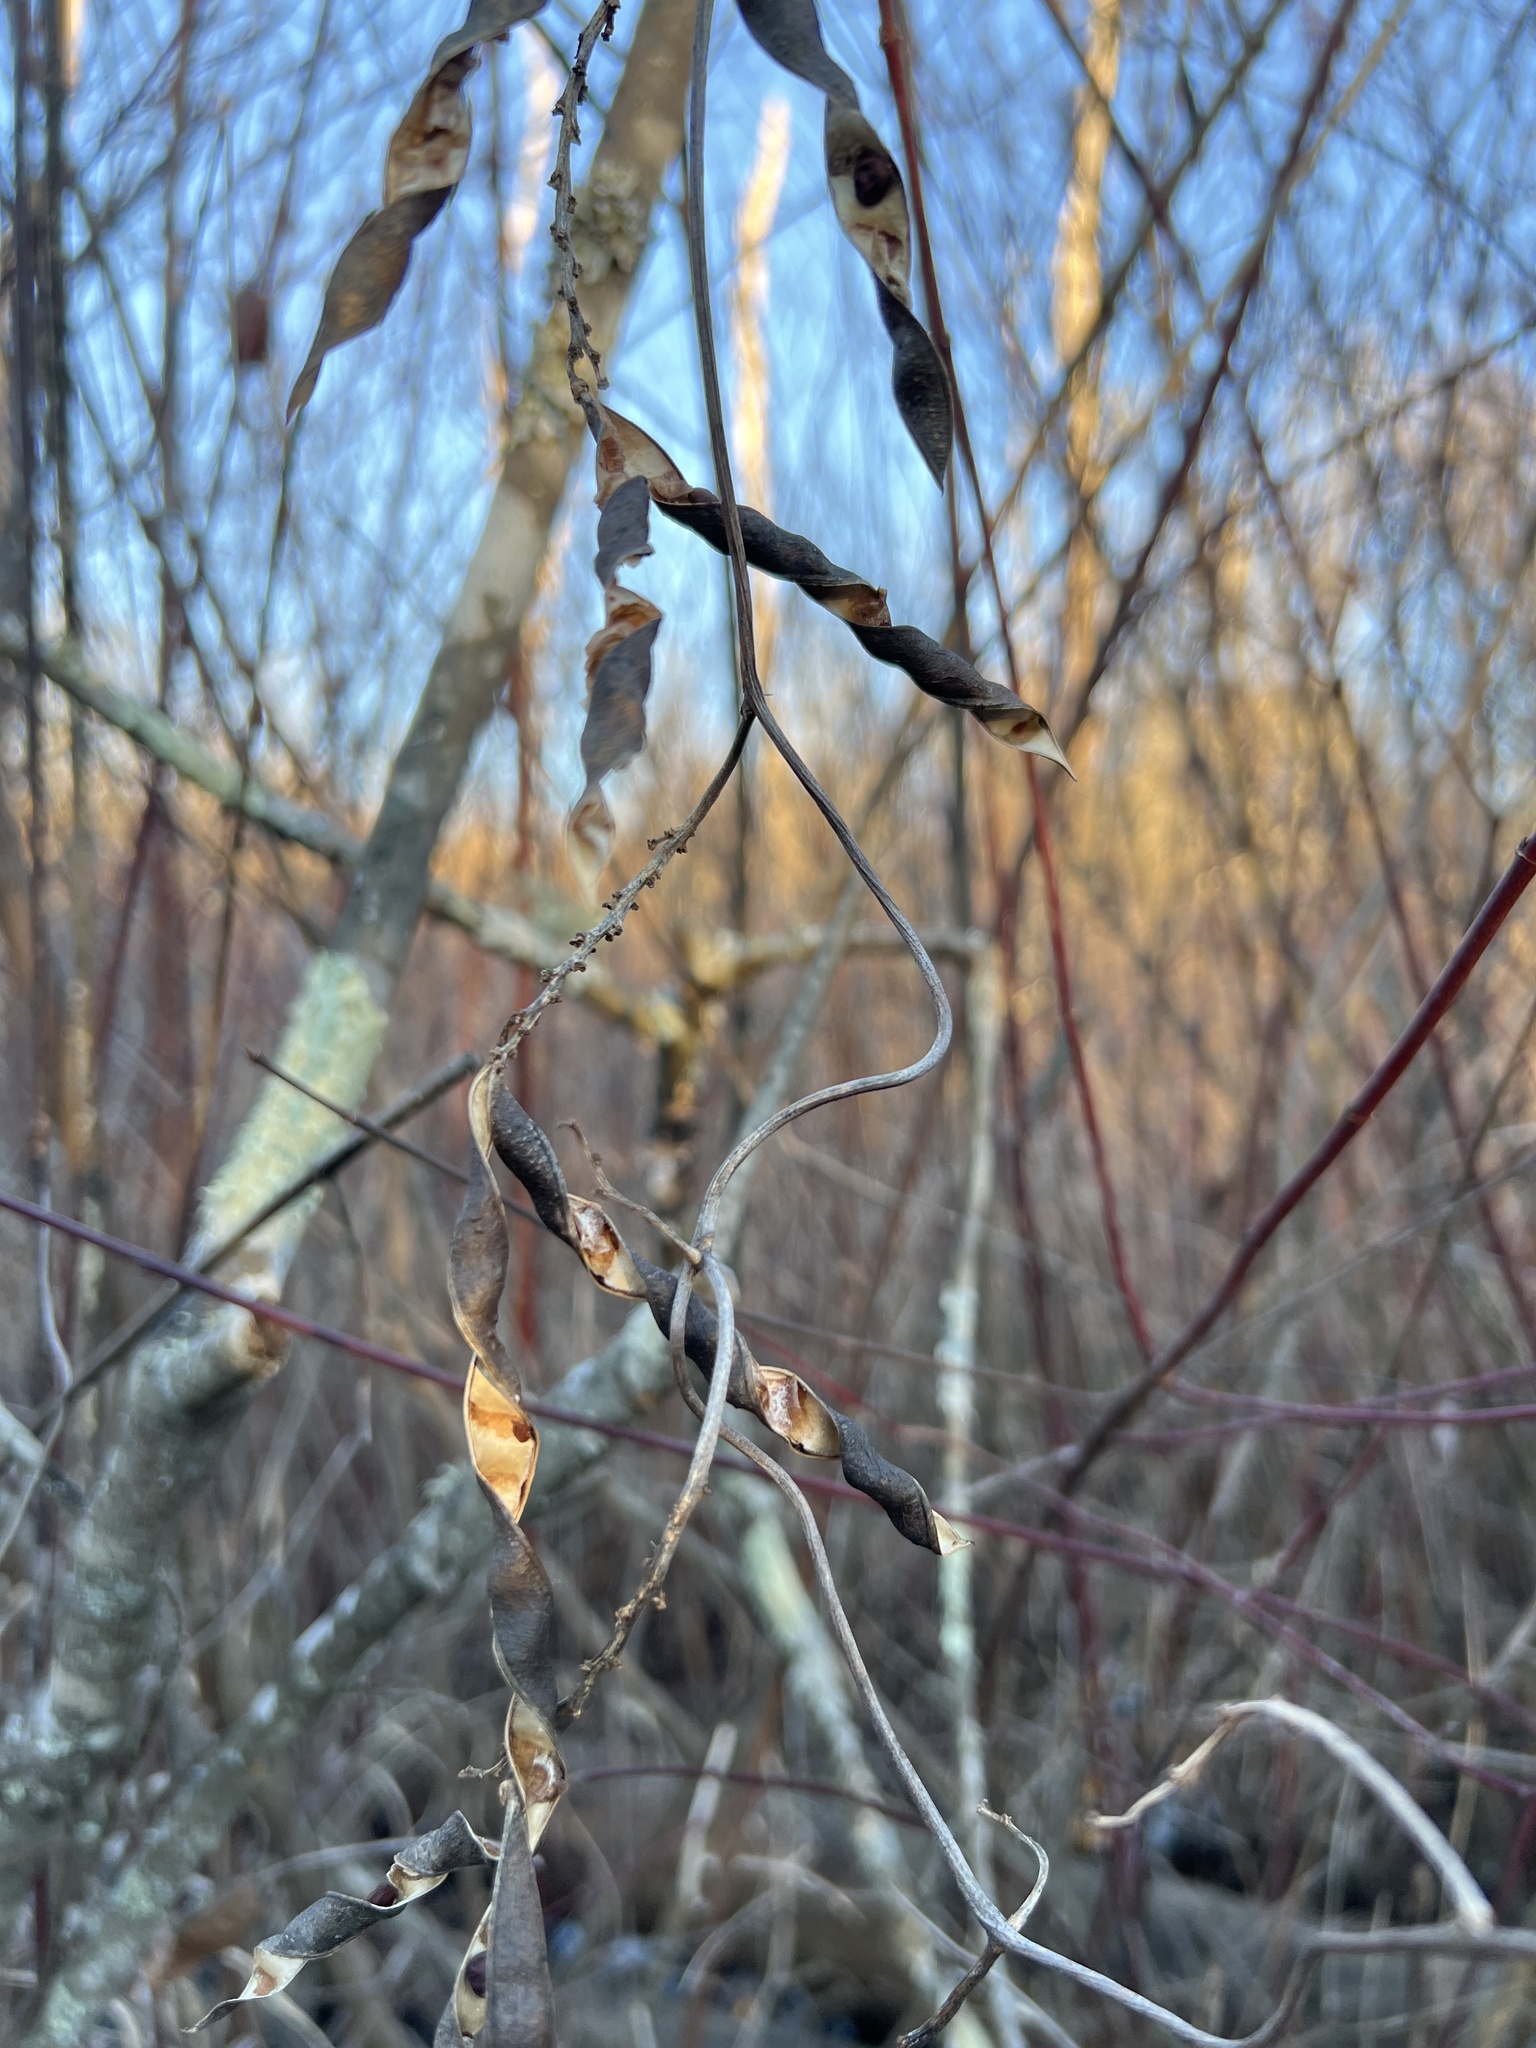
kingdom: Plantae
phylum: Tracheophyta
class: Magnoliopsida
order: Fabales
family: Fabaceae
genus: Apios
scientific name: Apios americana
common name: American potato-bean
